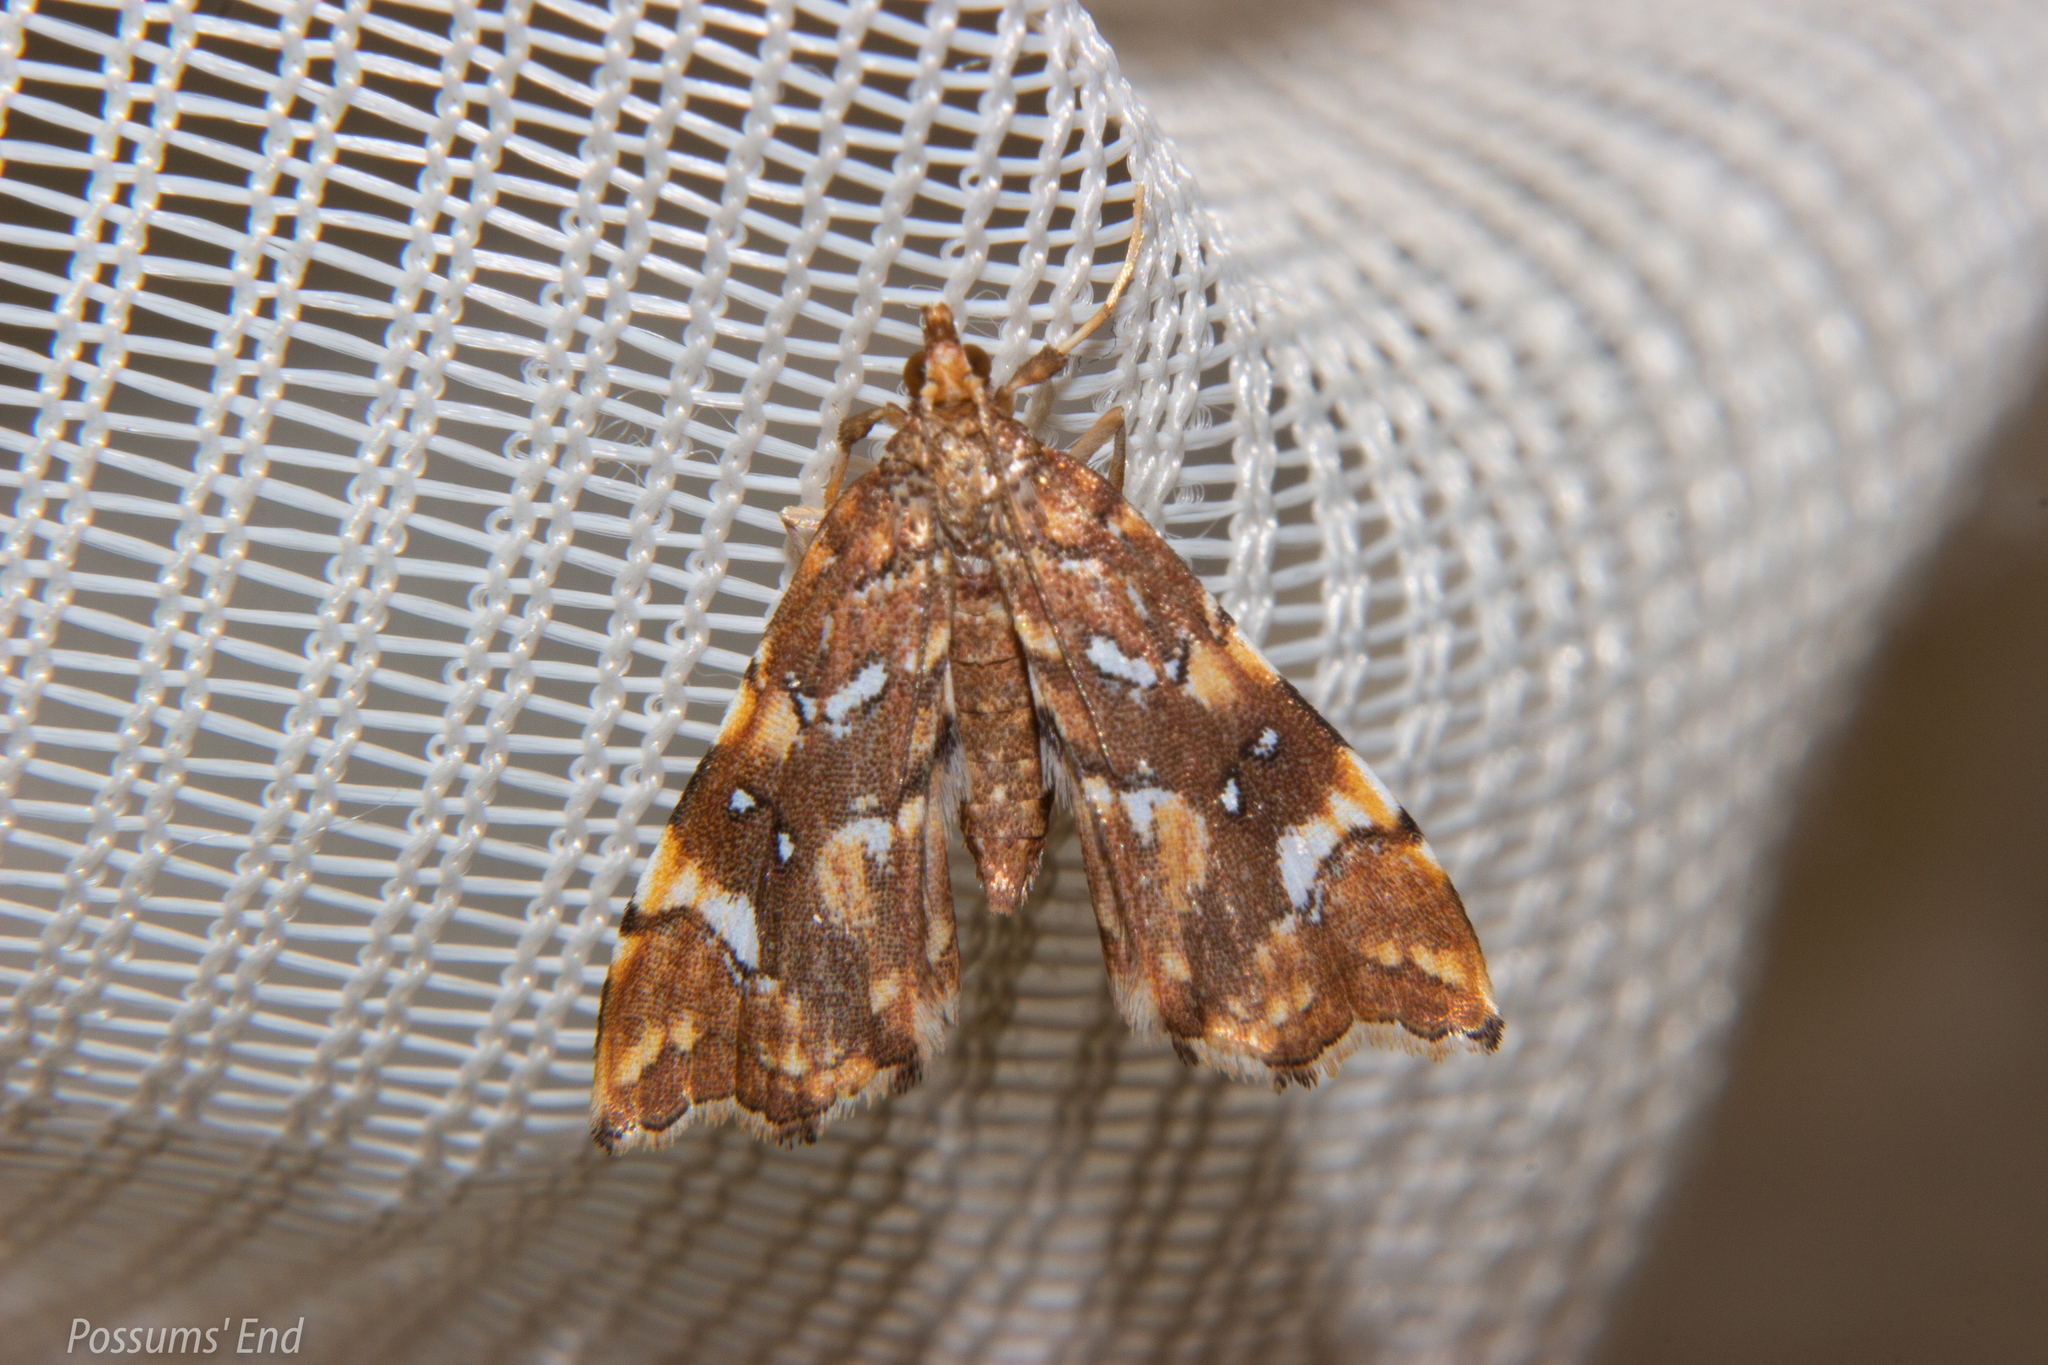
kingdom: Animalia
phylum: Arthropoda
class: Insecta
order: Lepidoptera
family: Pyralidae
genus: Musotima
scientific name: Musotima nitidalis
